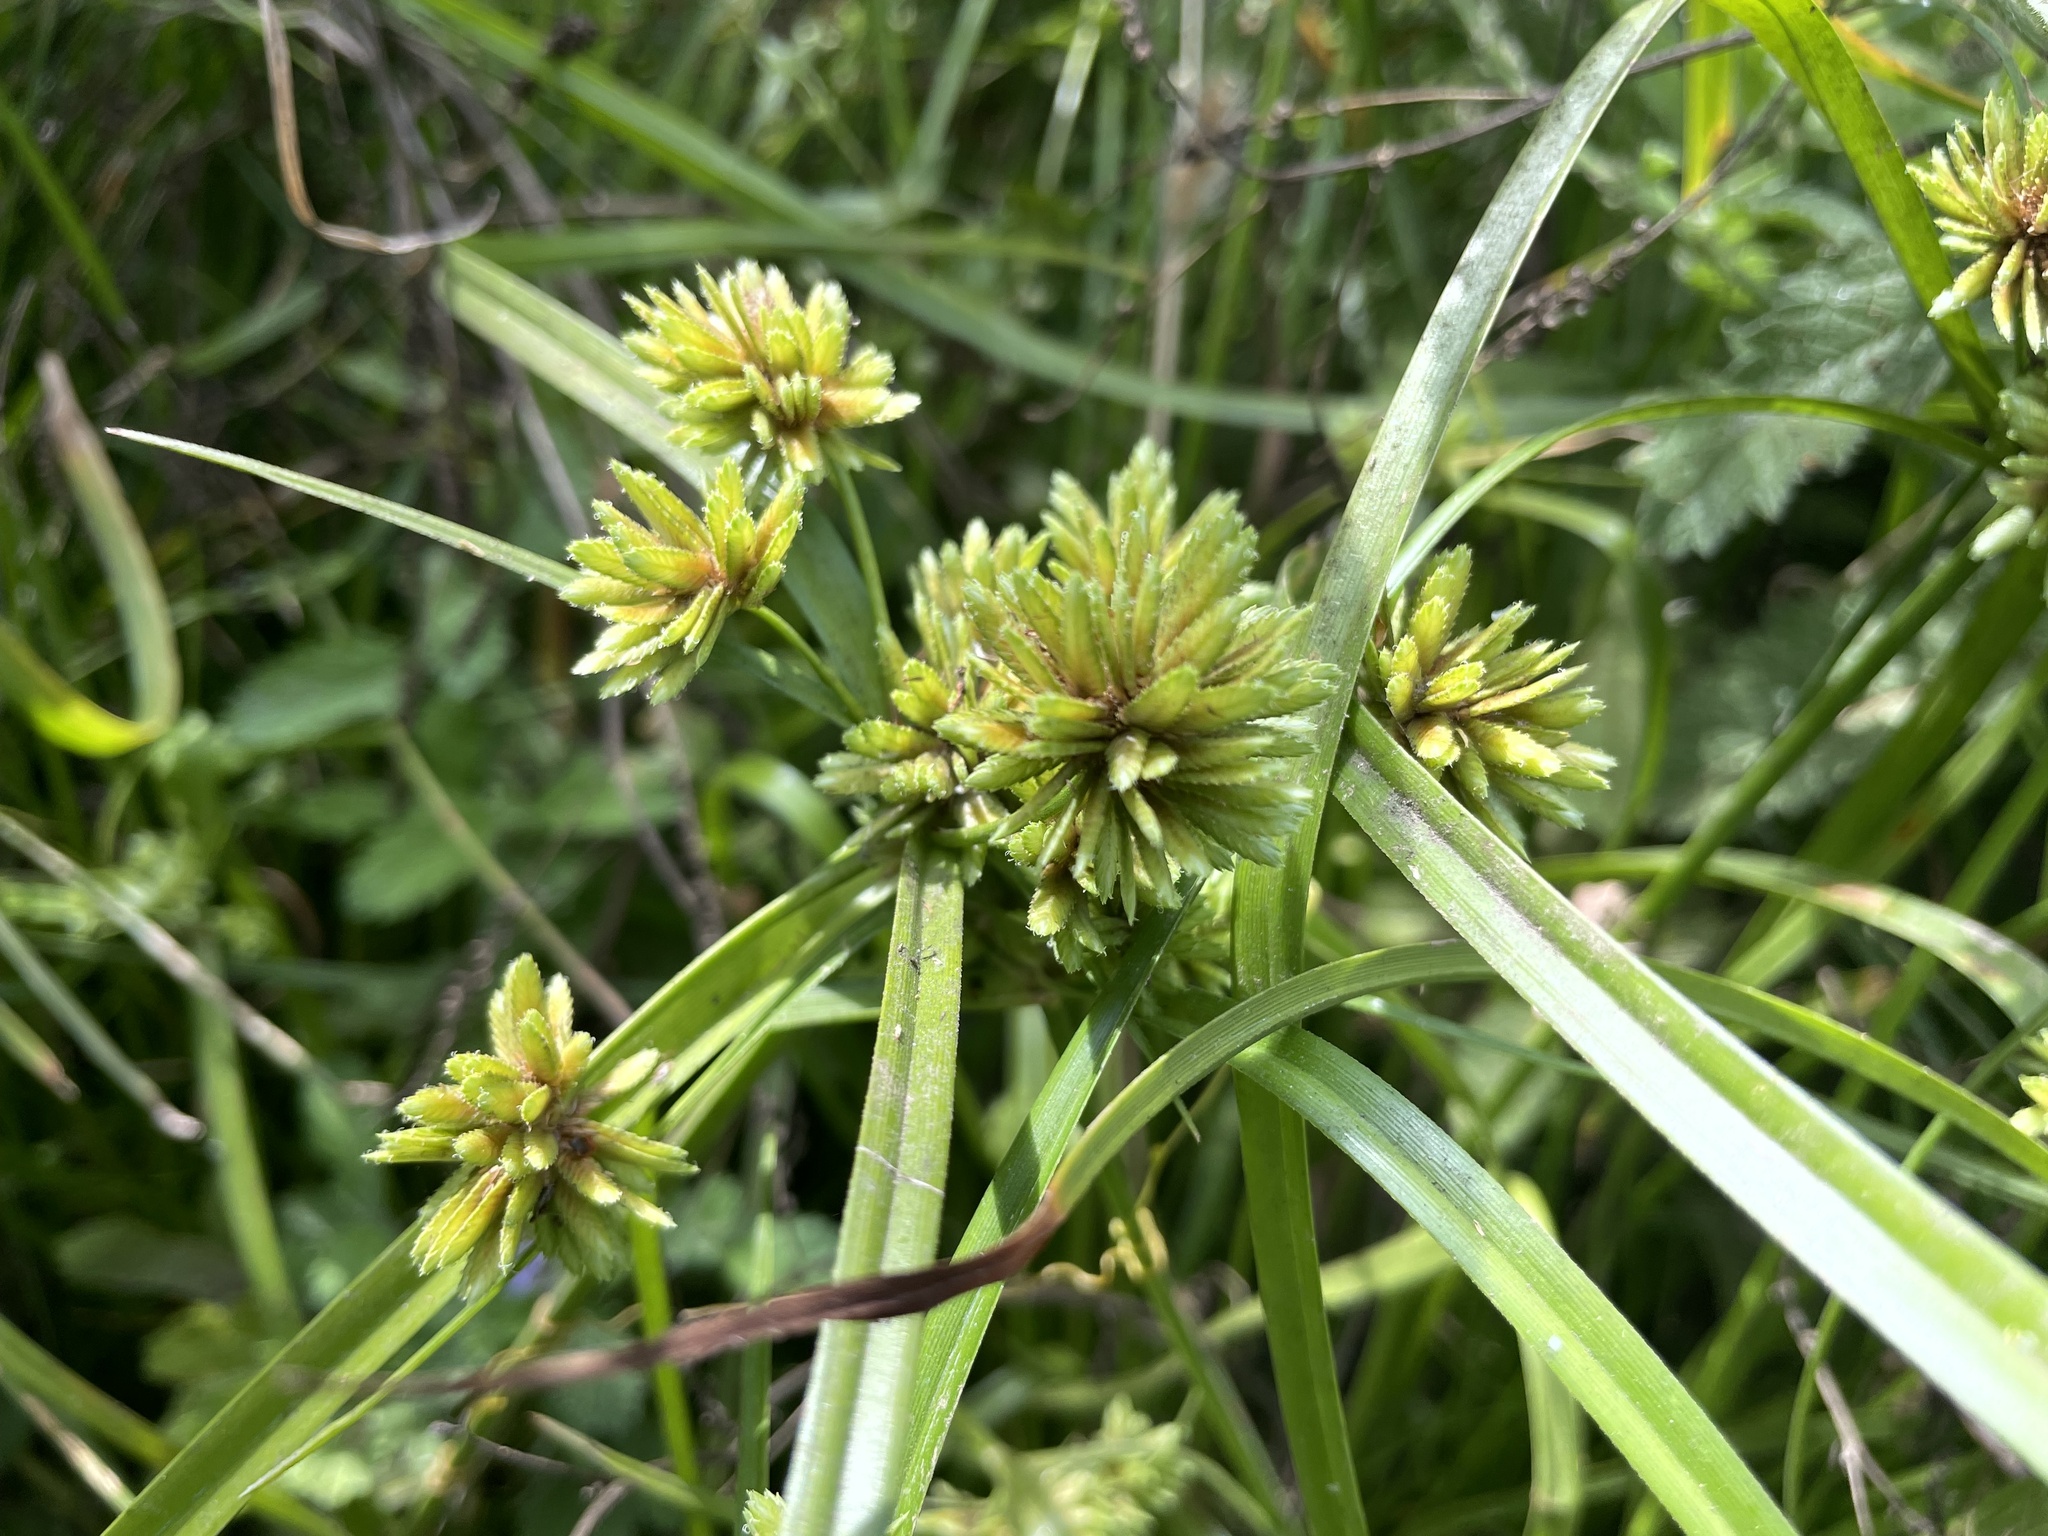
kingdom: Plantae
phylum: Tracheophyta
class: Liliopsida
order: Poales
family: Cyperaceae
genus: Cyperus
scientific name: Cyperus eragrostis
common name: Tall flatsedge
